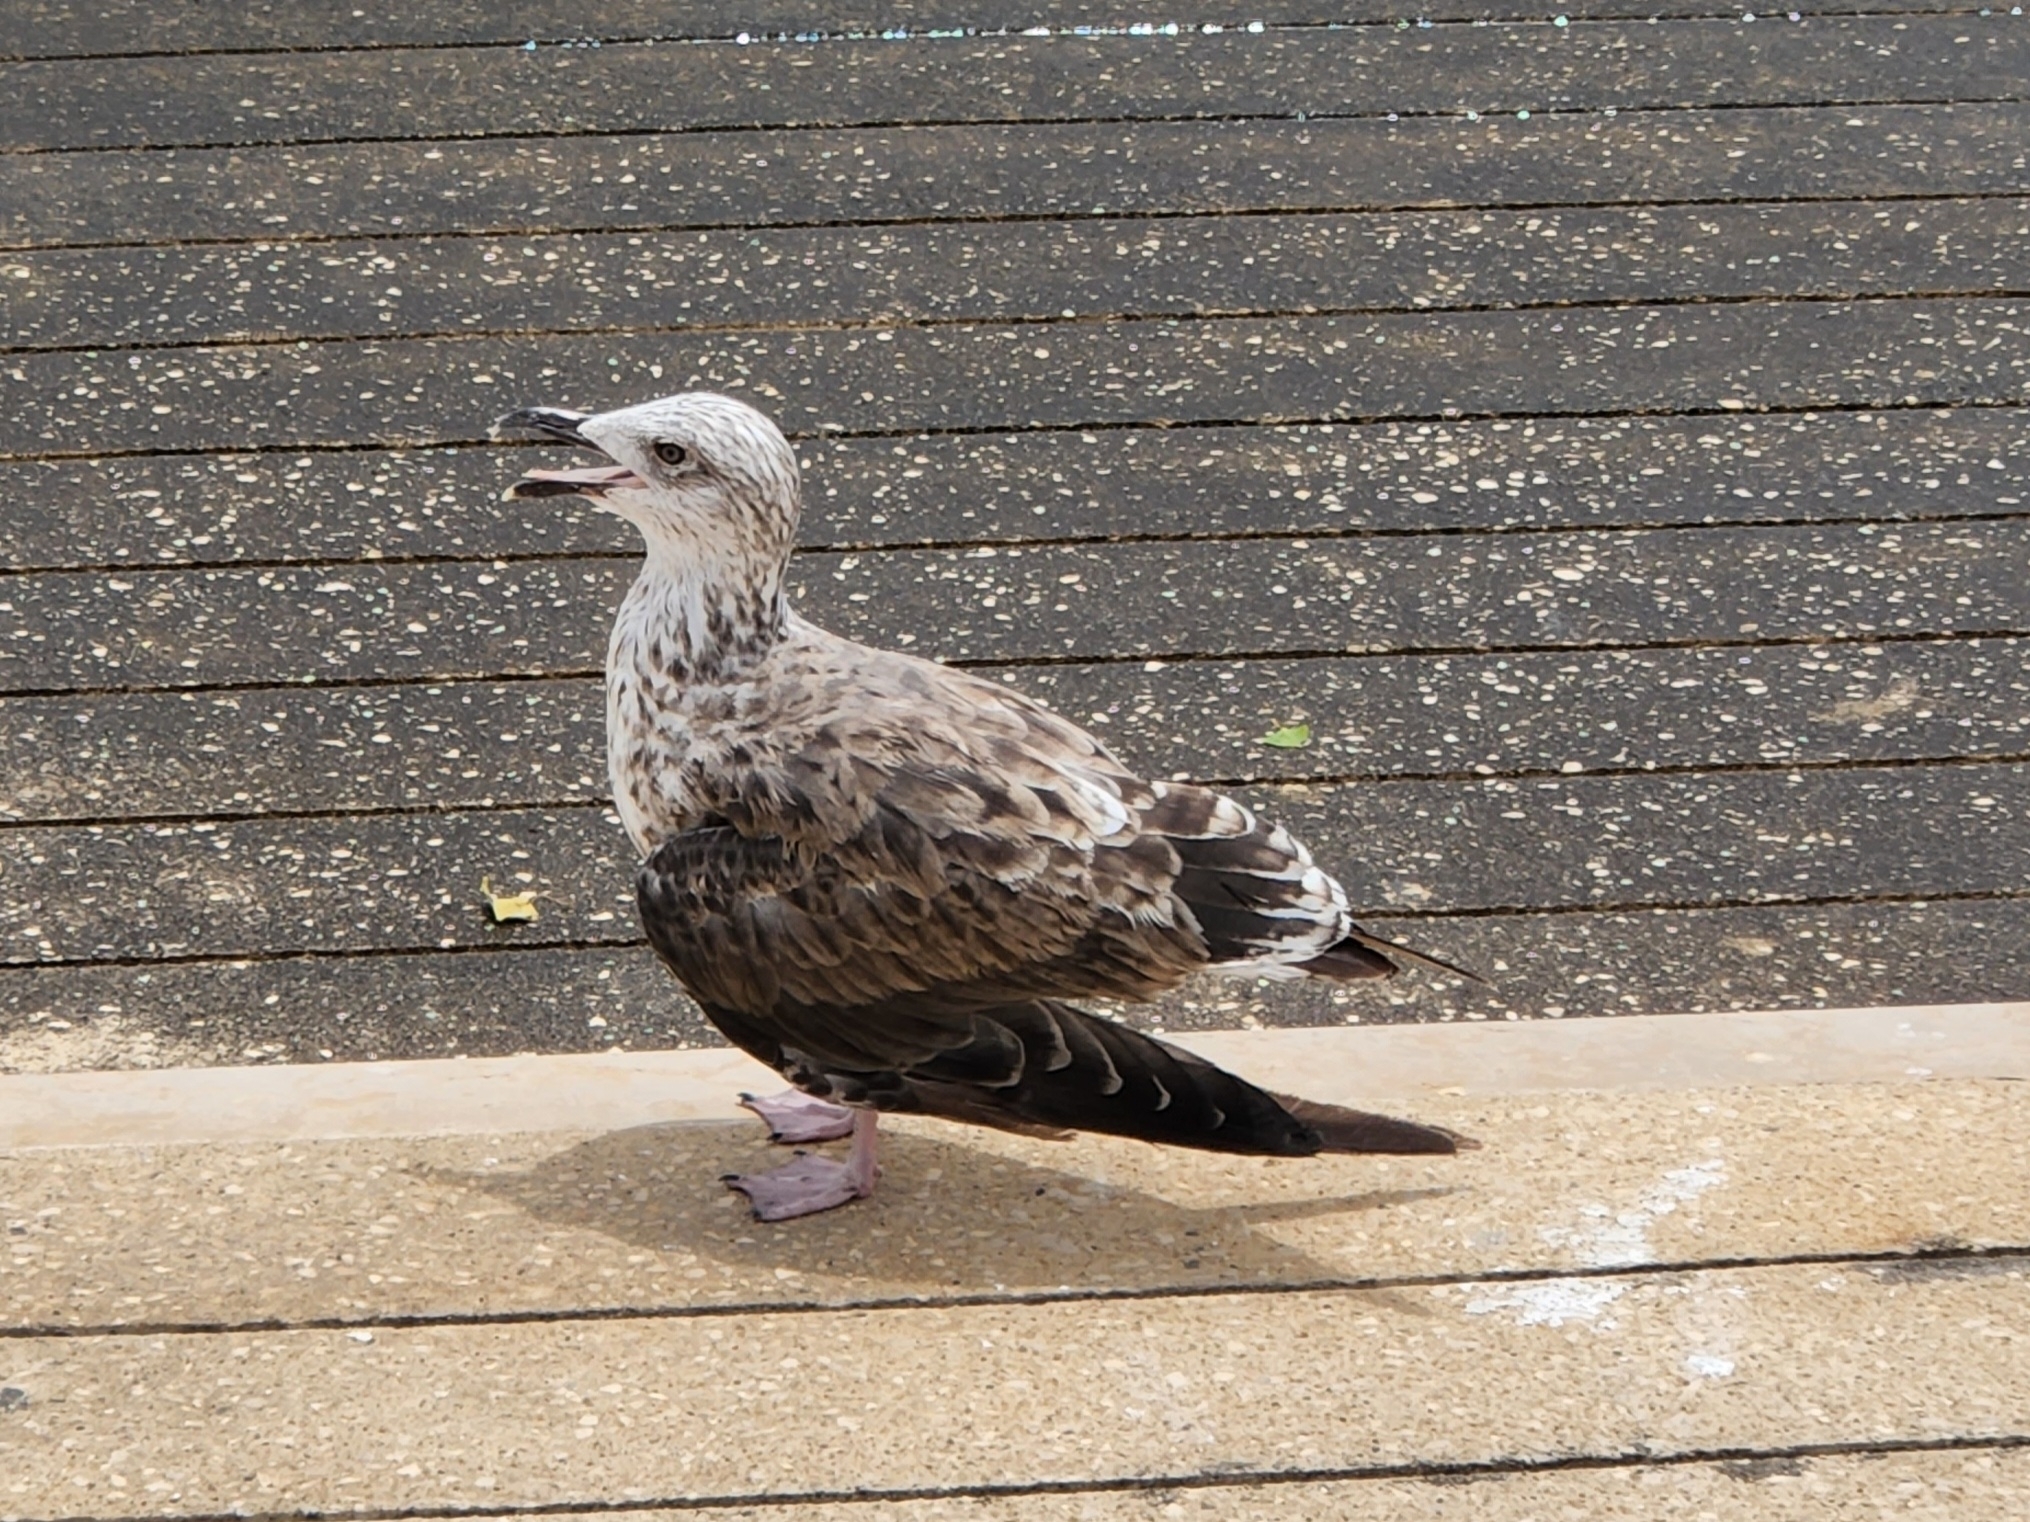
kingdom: Animalia
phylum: Chordata
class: Aves
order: Charadriiformes
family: Laridae
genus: Larus
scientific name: Larus fuscus
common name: Lesser black-backed gull
